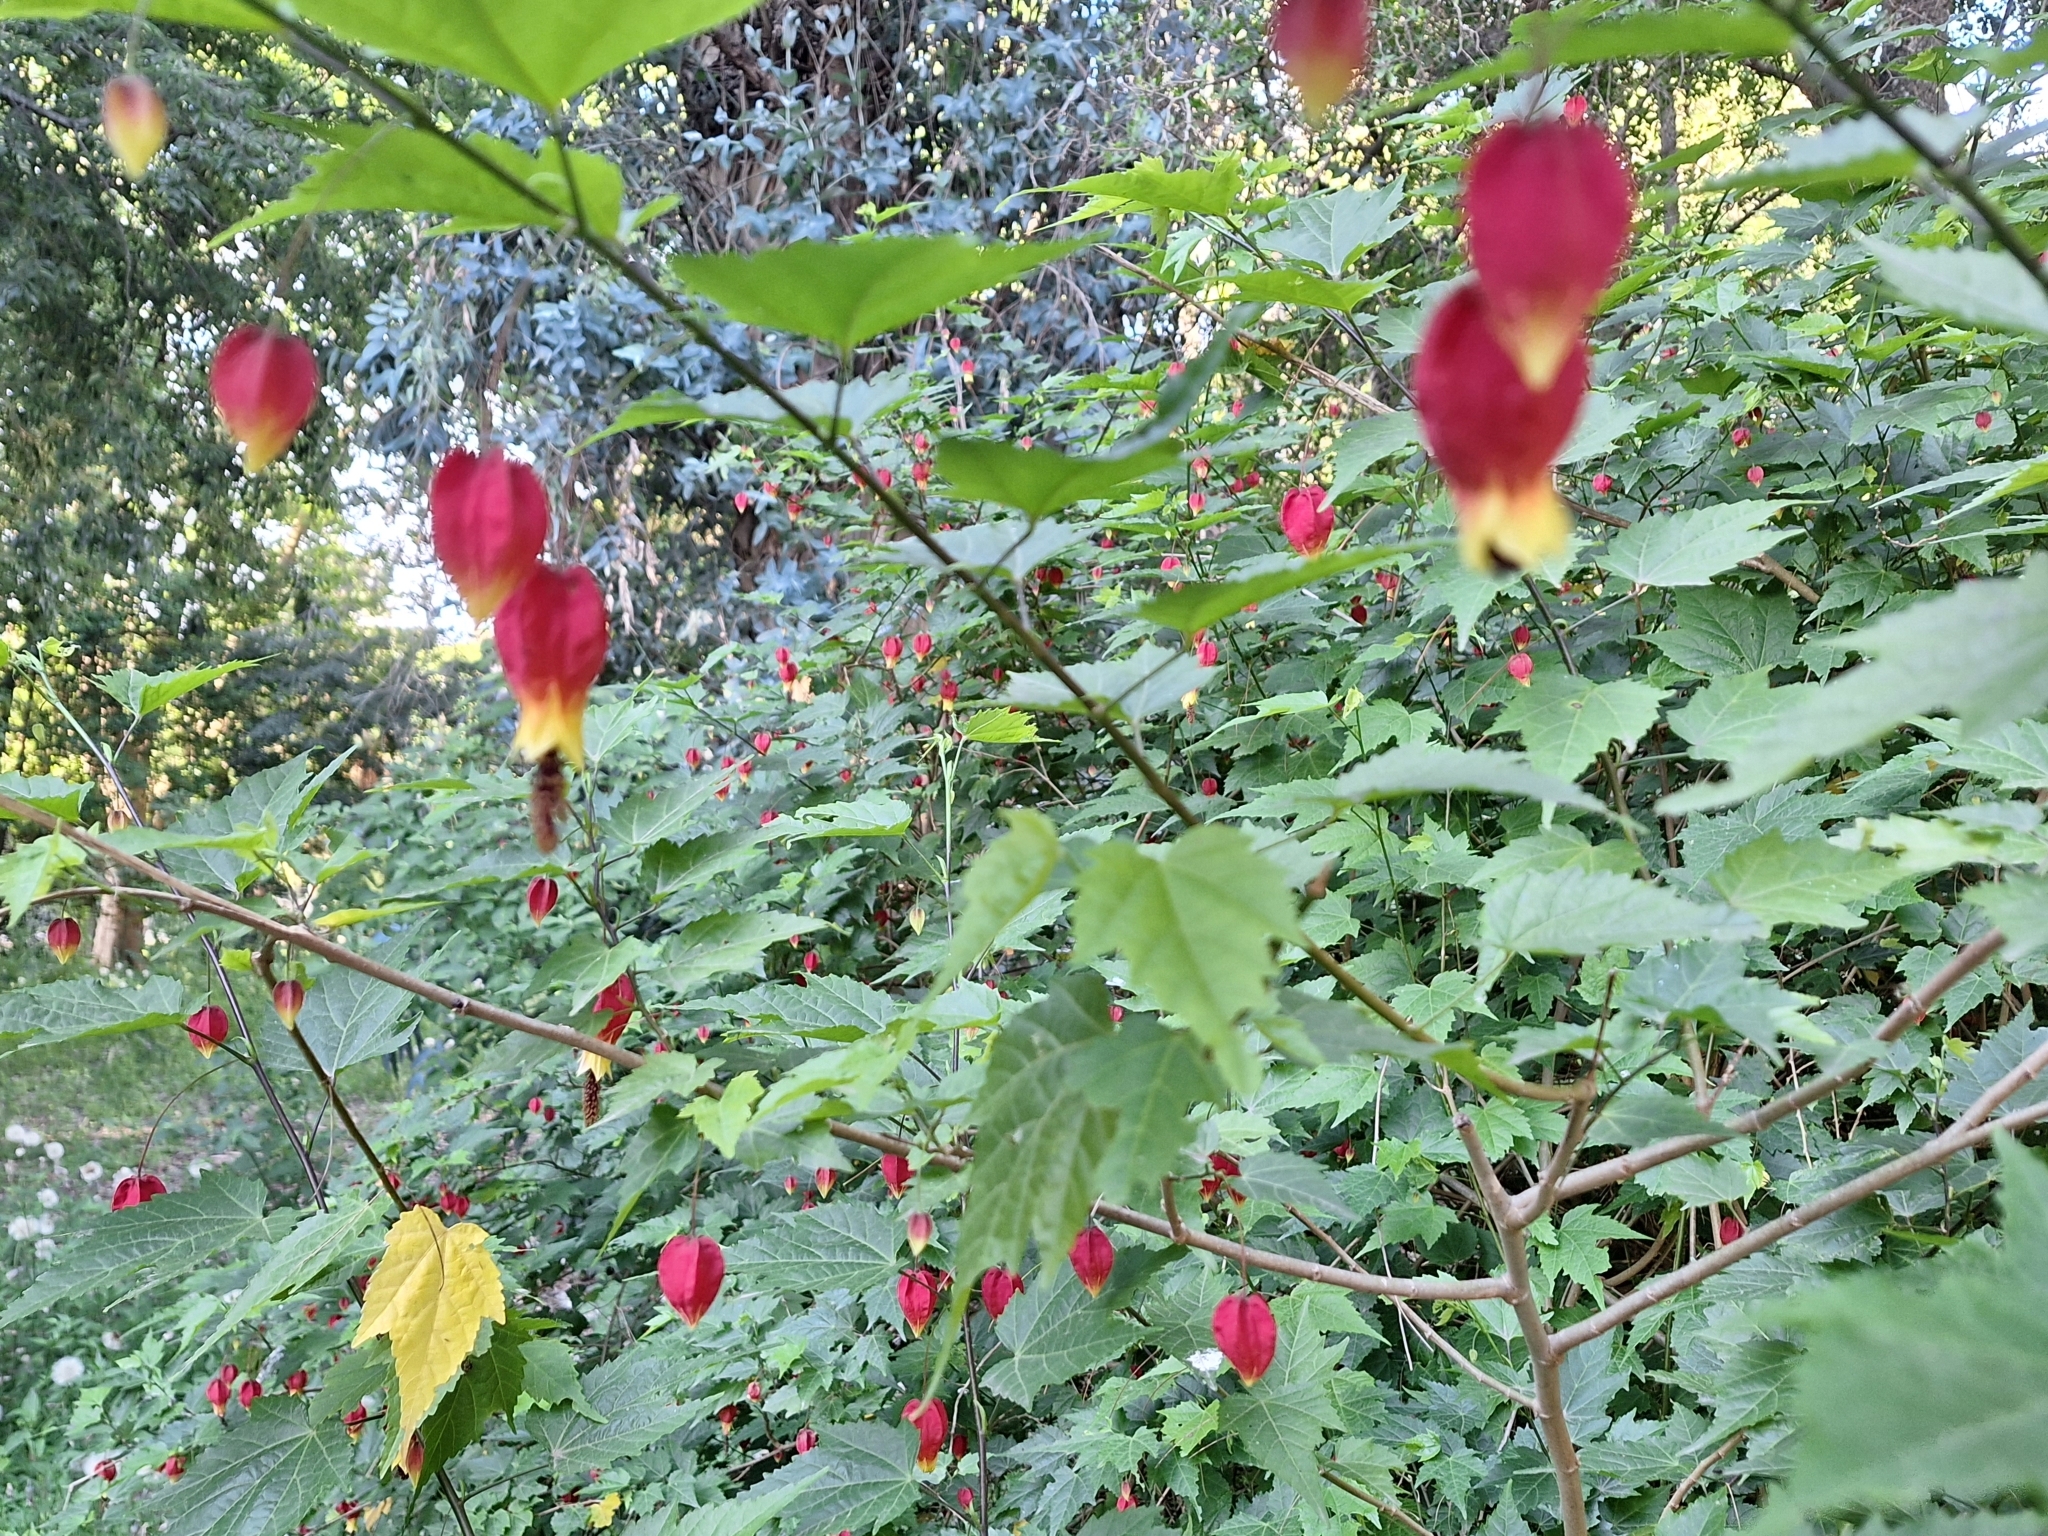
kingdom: Plantae
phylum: Tracheophyta
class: Magnoliopsida
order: Malvales
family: Malvaceae
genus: Callianthe
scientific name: Callianthe megapotamica
